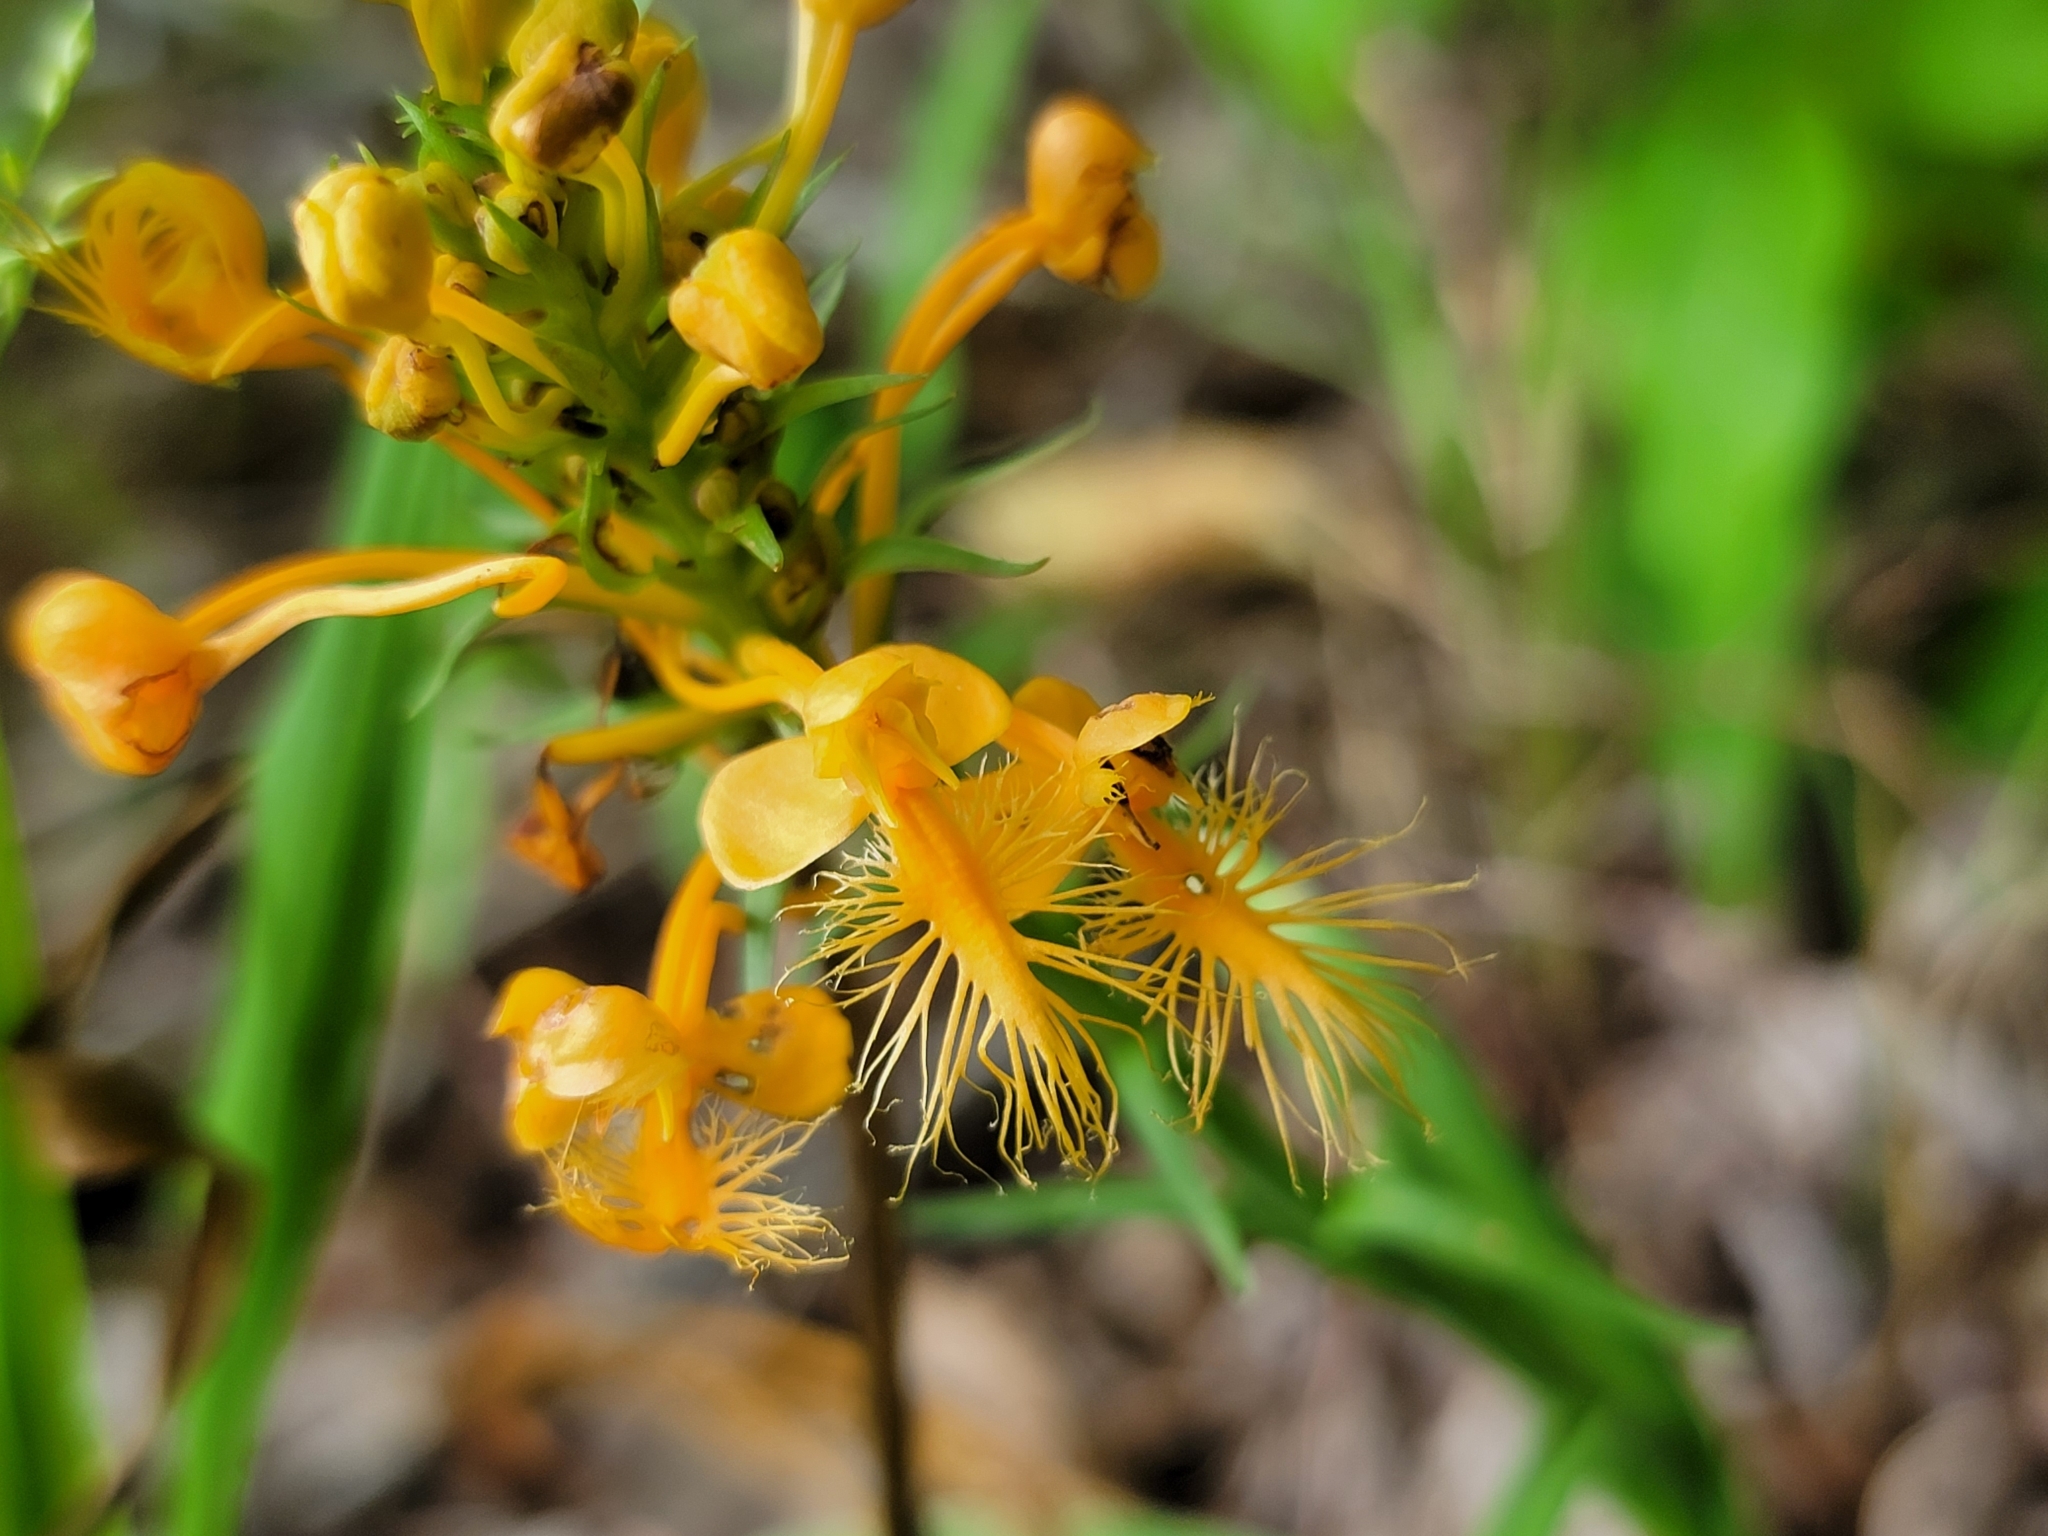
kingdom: Plantae
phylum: Tracheophyta
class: Liliopsida
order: Asparagales
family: Orchidaceae
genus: Platanthera
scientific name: Platanthera ciliaris
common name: Yellow fringed orchid
